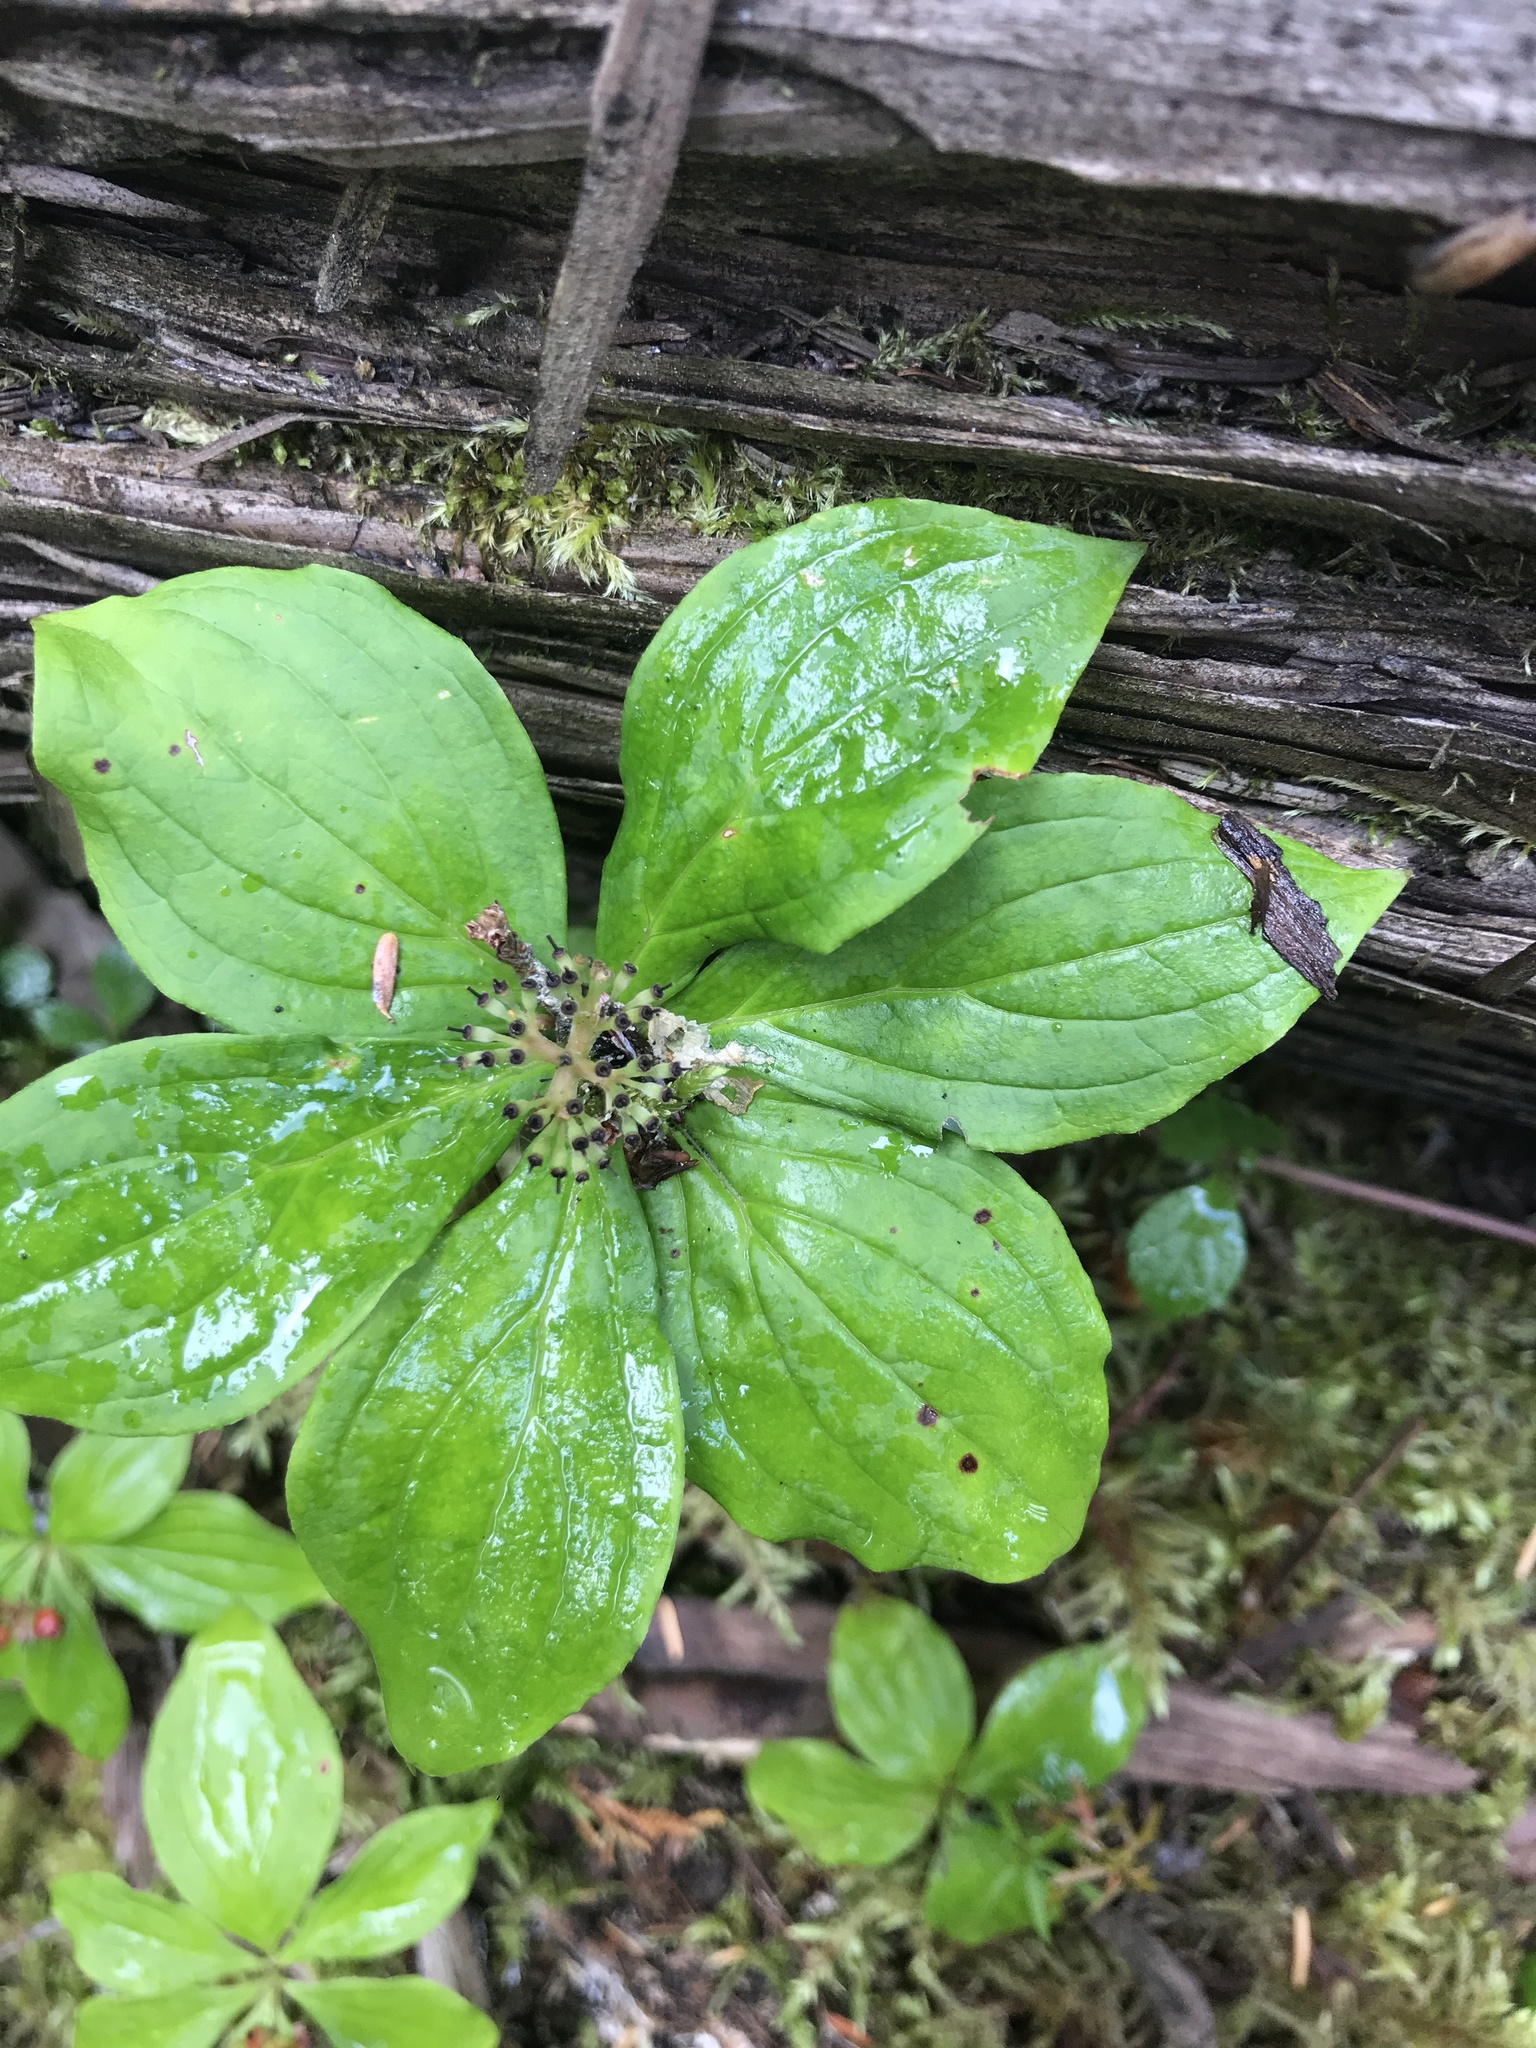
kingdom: Plantae
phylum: Tracheophyta
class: Magnoliopsida
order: Cornales
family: Cornaceae
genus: Cornus
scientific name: Cornus unalaschkensis
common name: Alaska bunchberry
